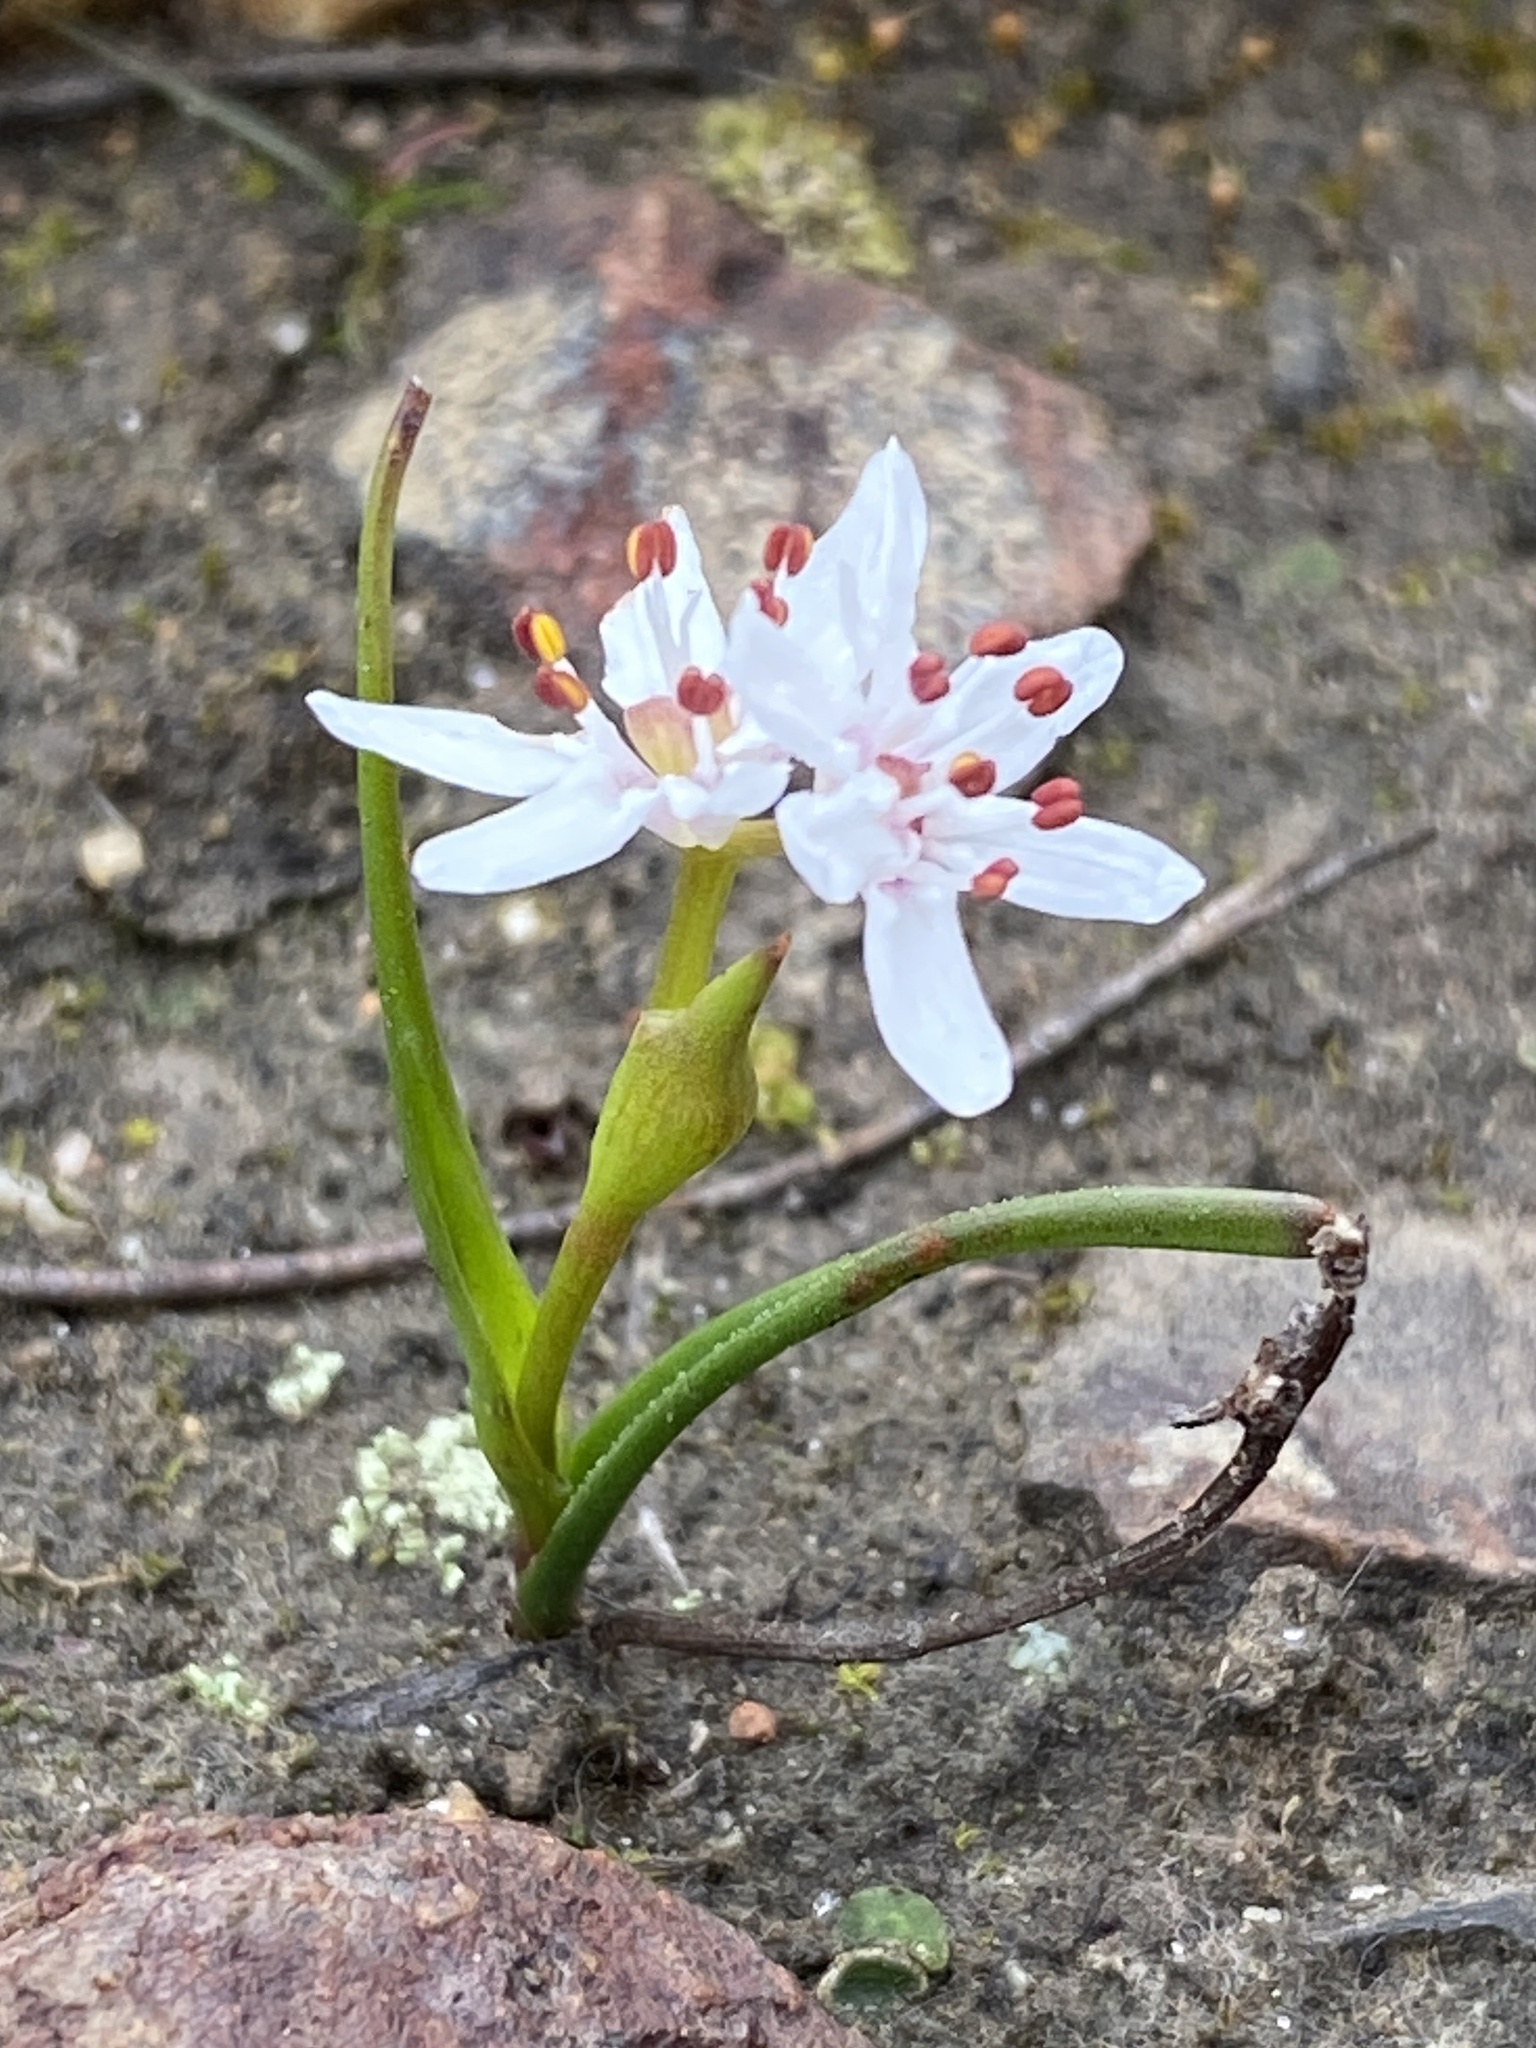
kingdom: Plantae
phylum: Tracheophyta
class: Liliopsida
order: Liliales
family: Colchicaceae
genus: Wurmbea
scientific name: Wurmbea punctata
